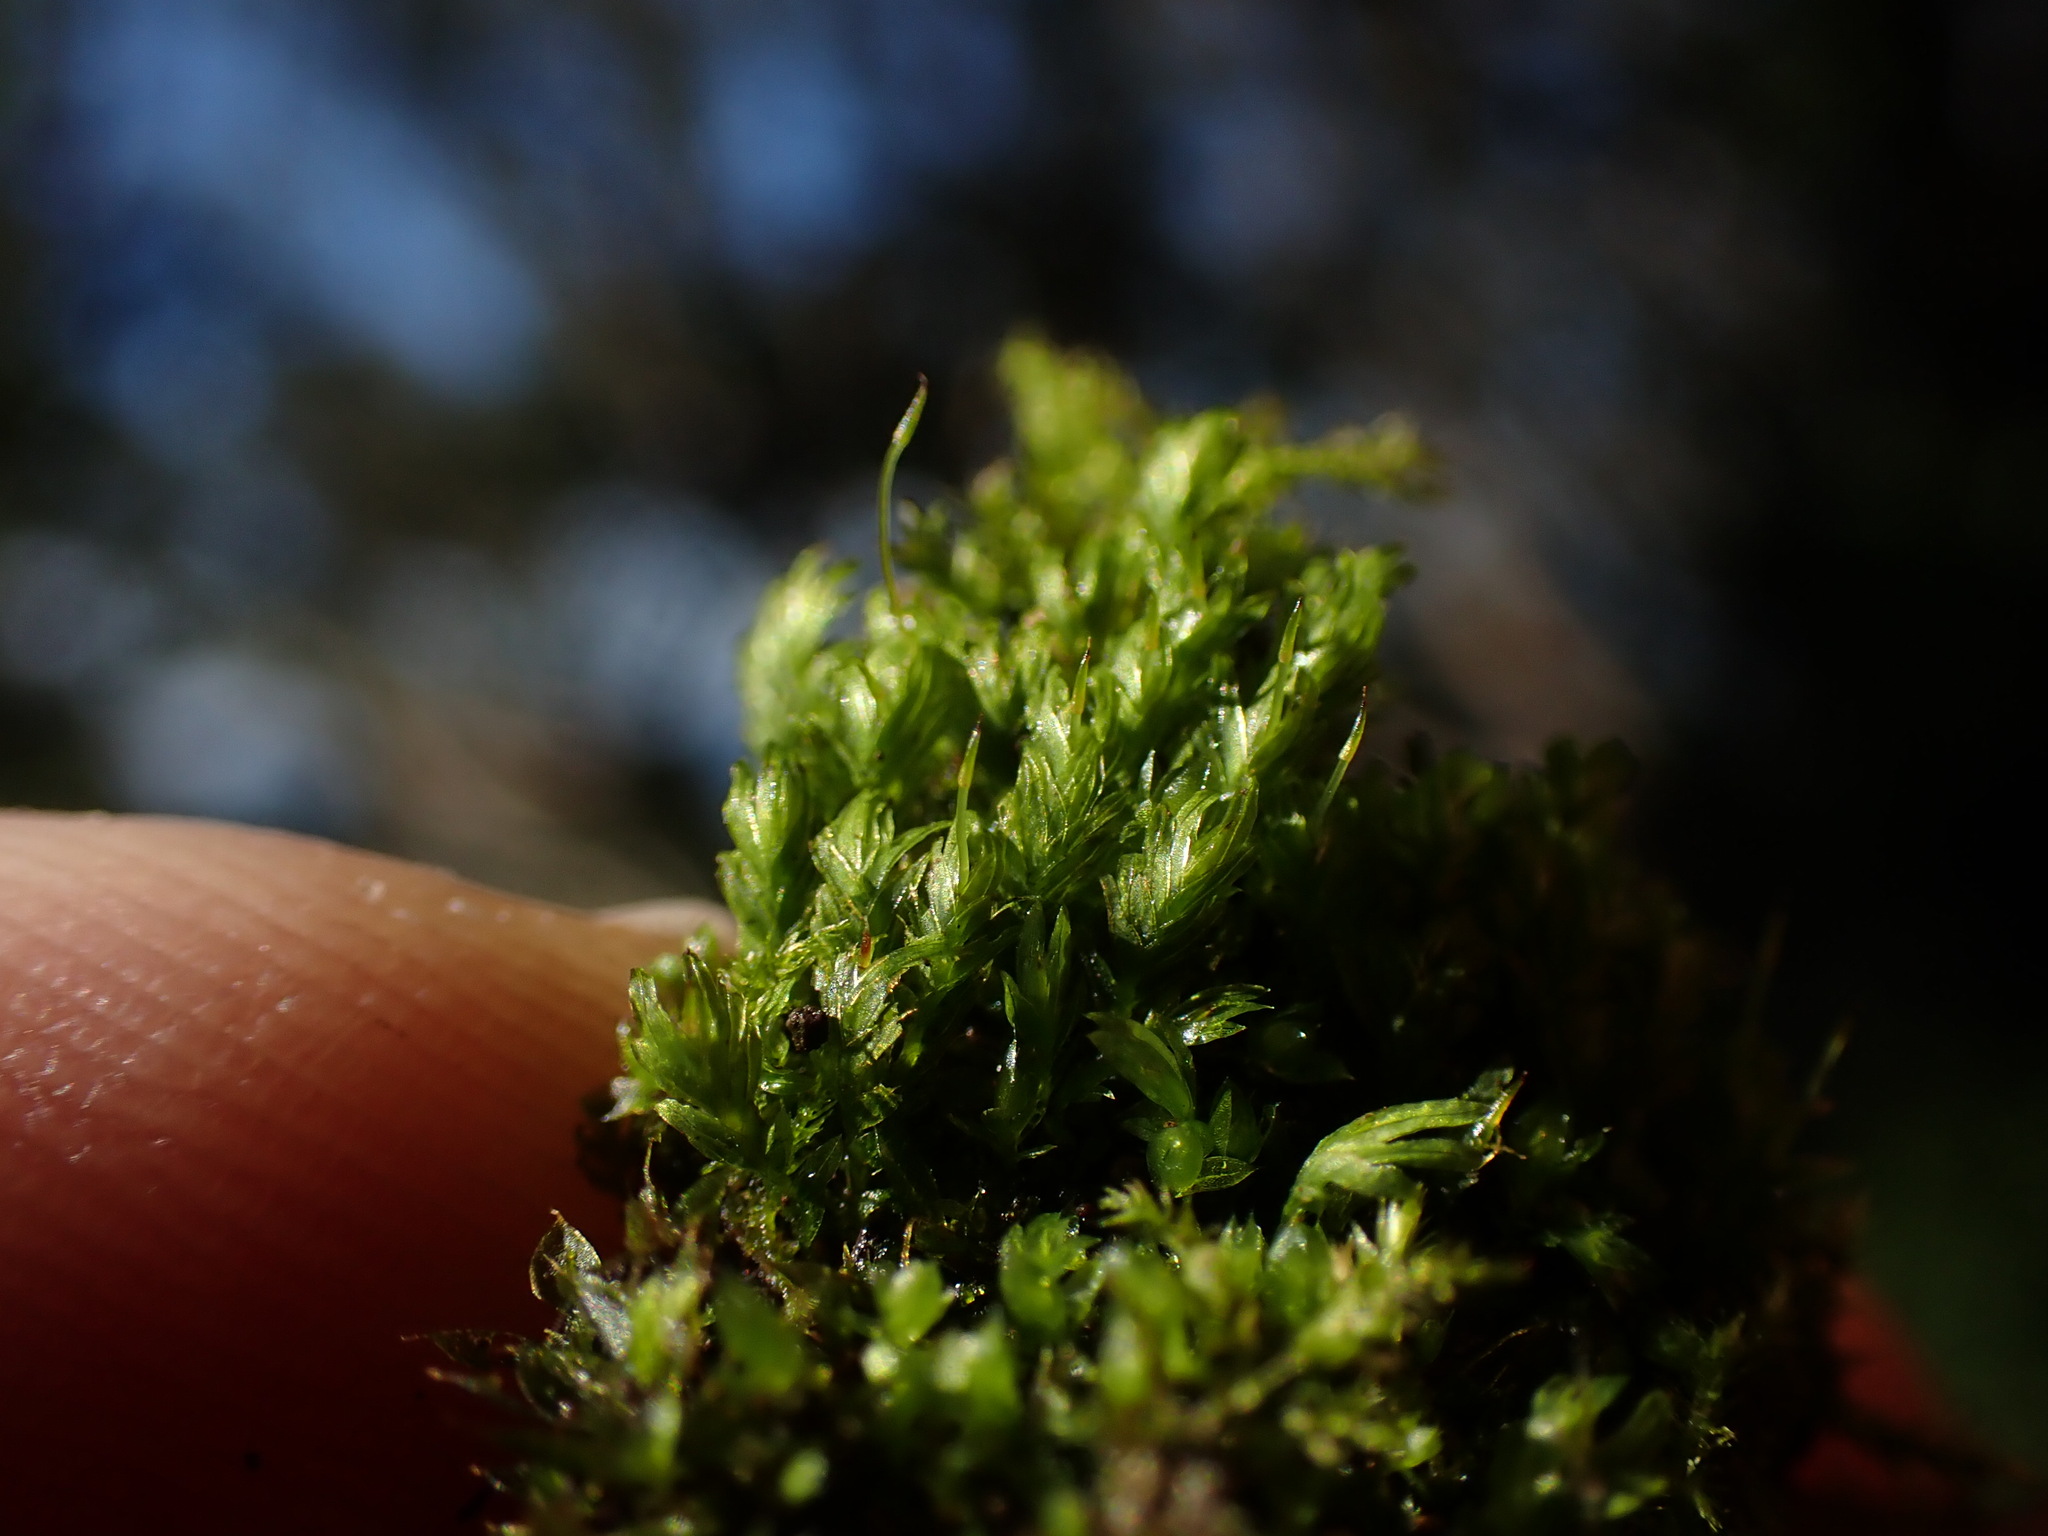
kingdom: Plantae
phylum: Bryophyta
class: Bryopsida
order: Dicranales
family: Fissidentaceae
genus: Fissidens
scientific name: Fissidens bryoides
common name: Lesser pocket moss
